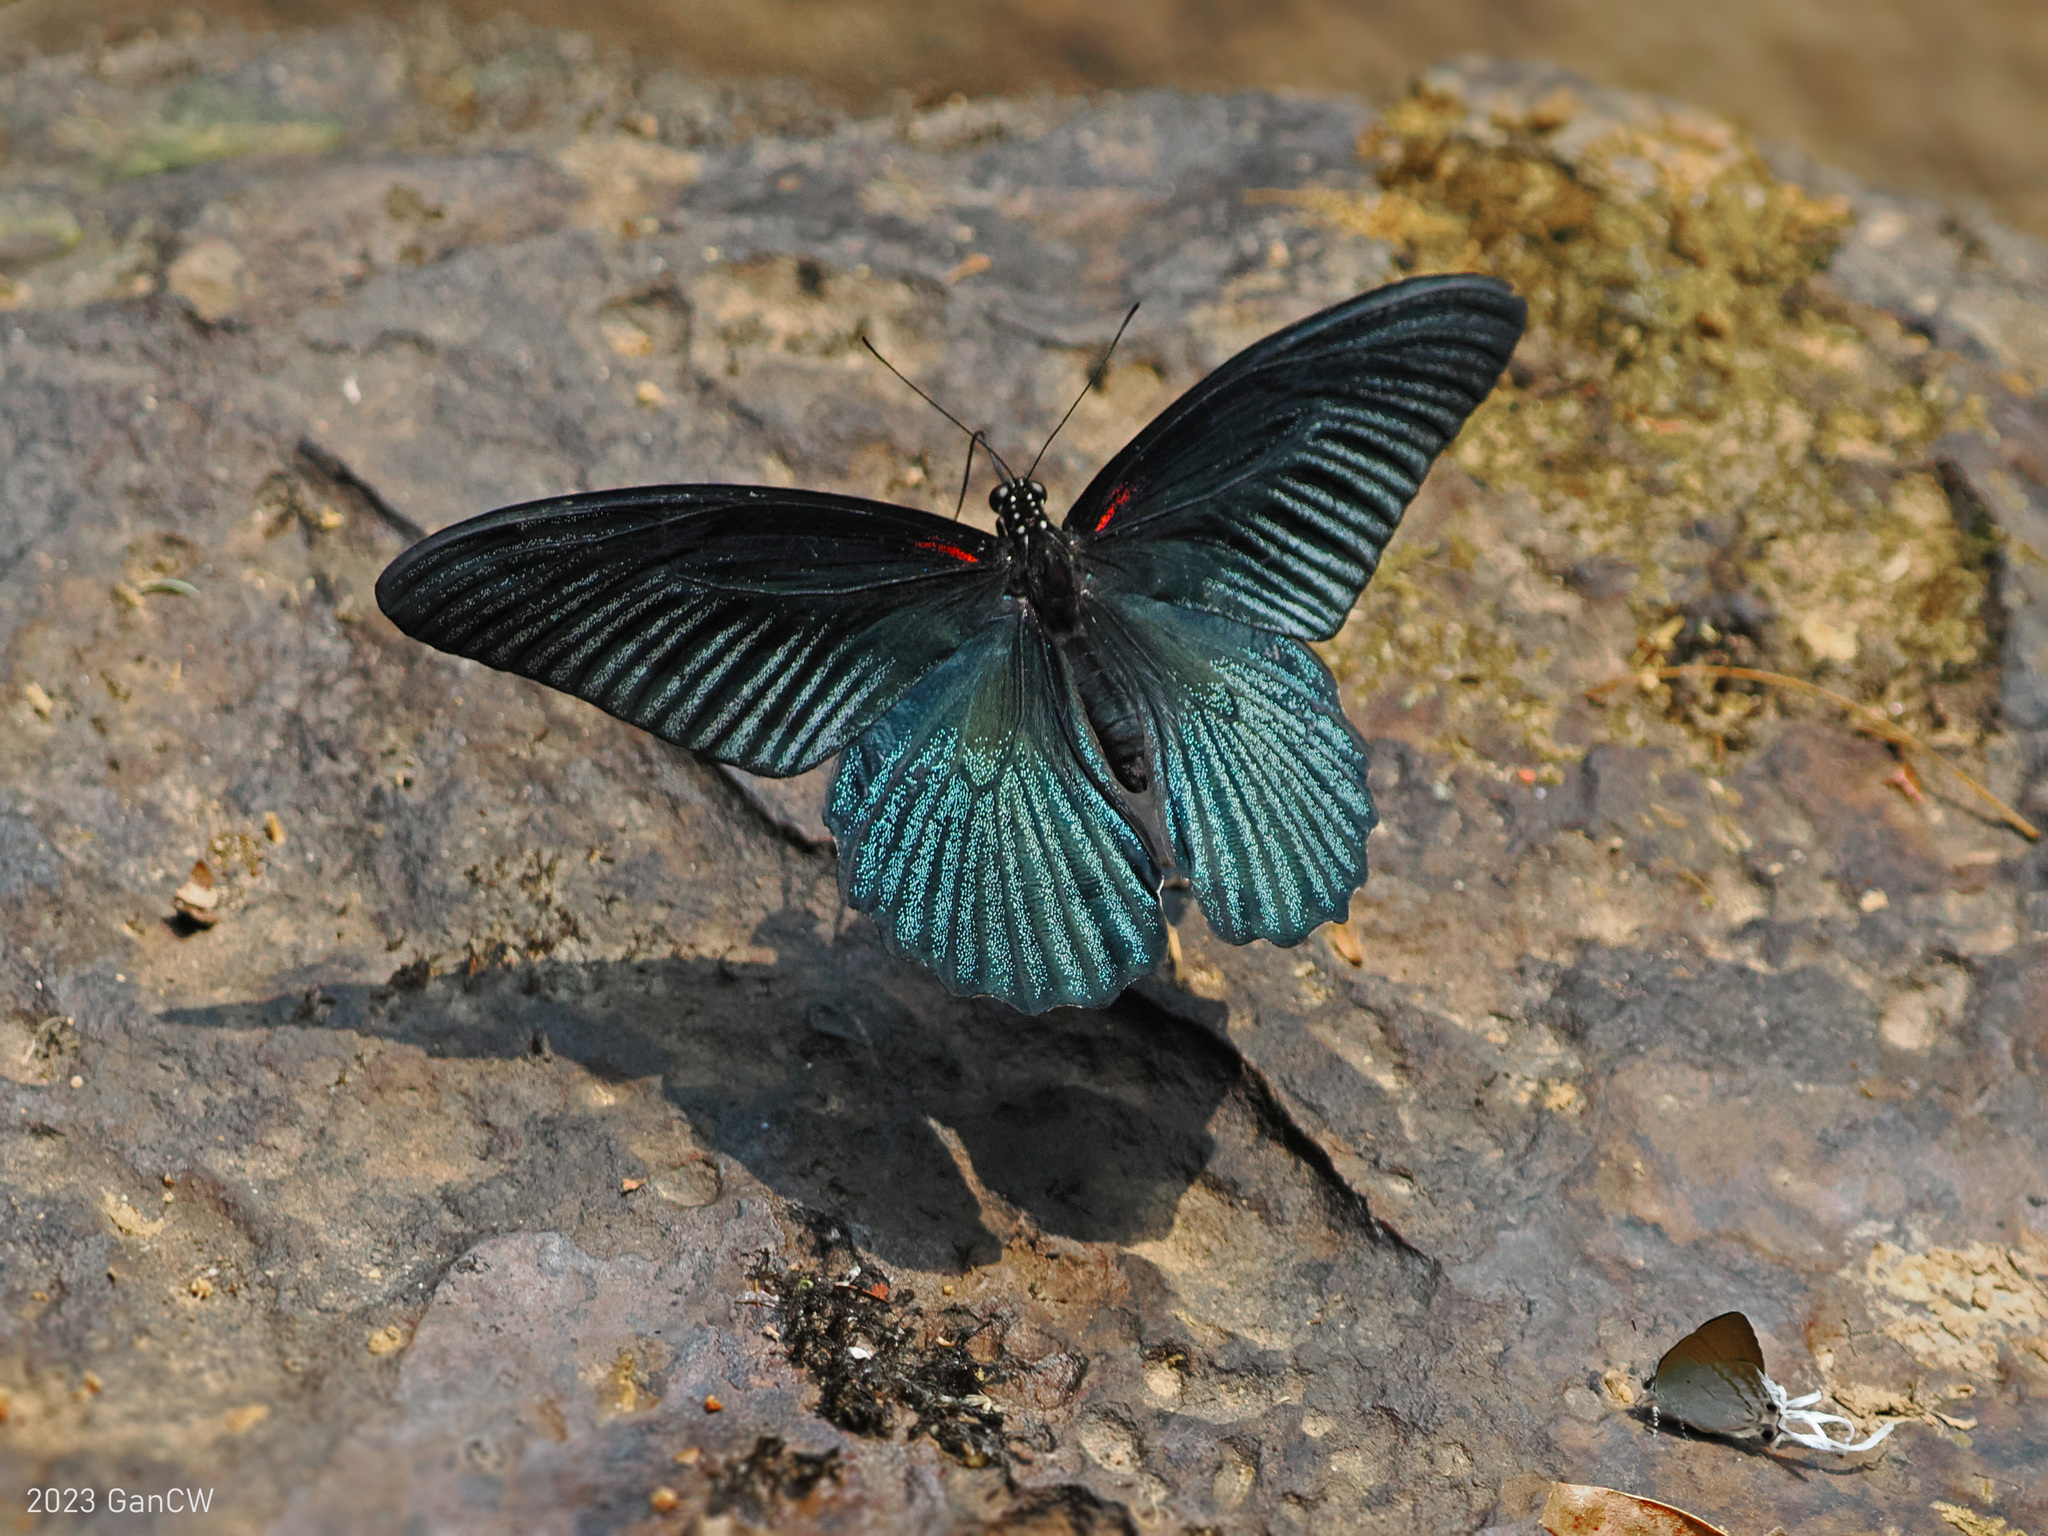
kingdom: Animalia
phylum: Arthropoda
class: Insecta
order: Lepidoptera
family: Papilionidae
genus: Papilio
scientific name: Papilio memnon
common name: Great mormon
